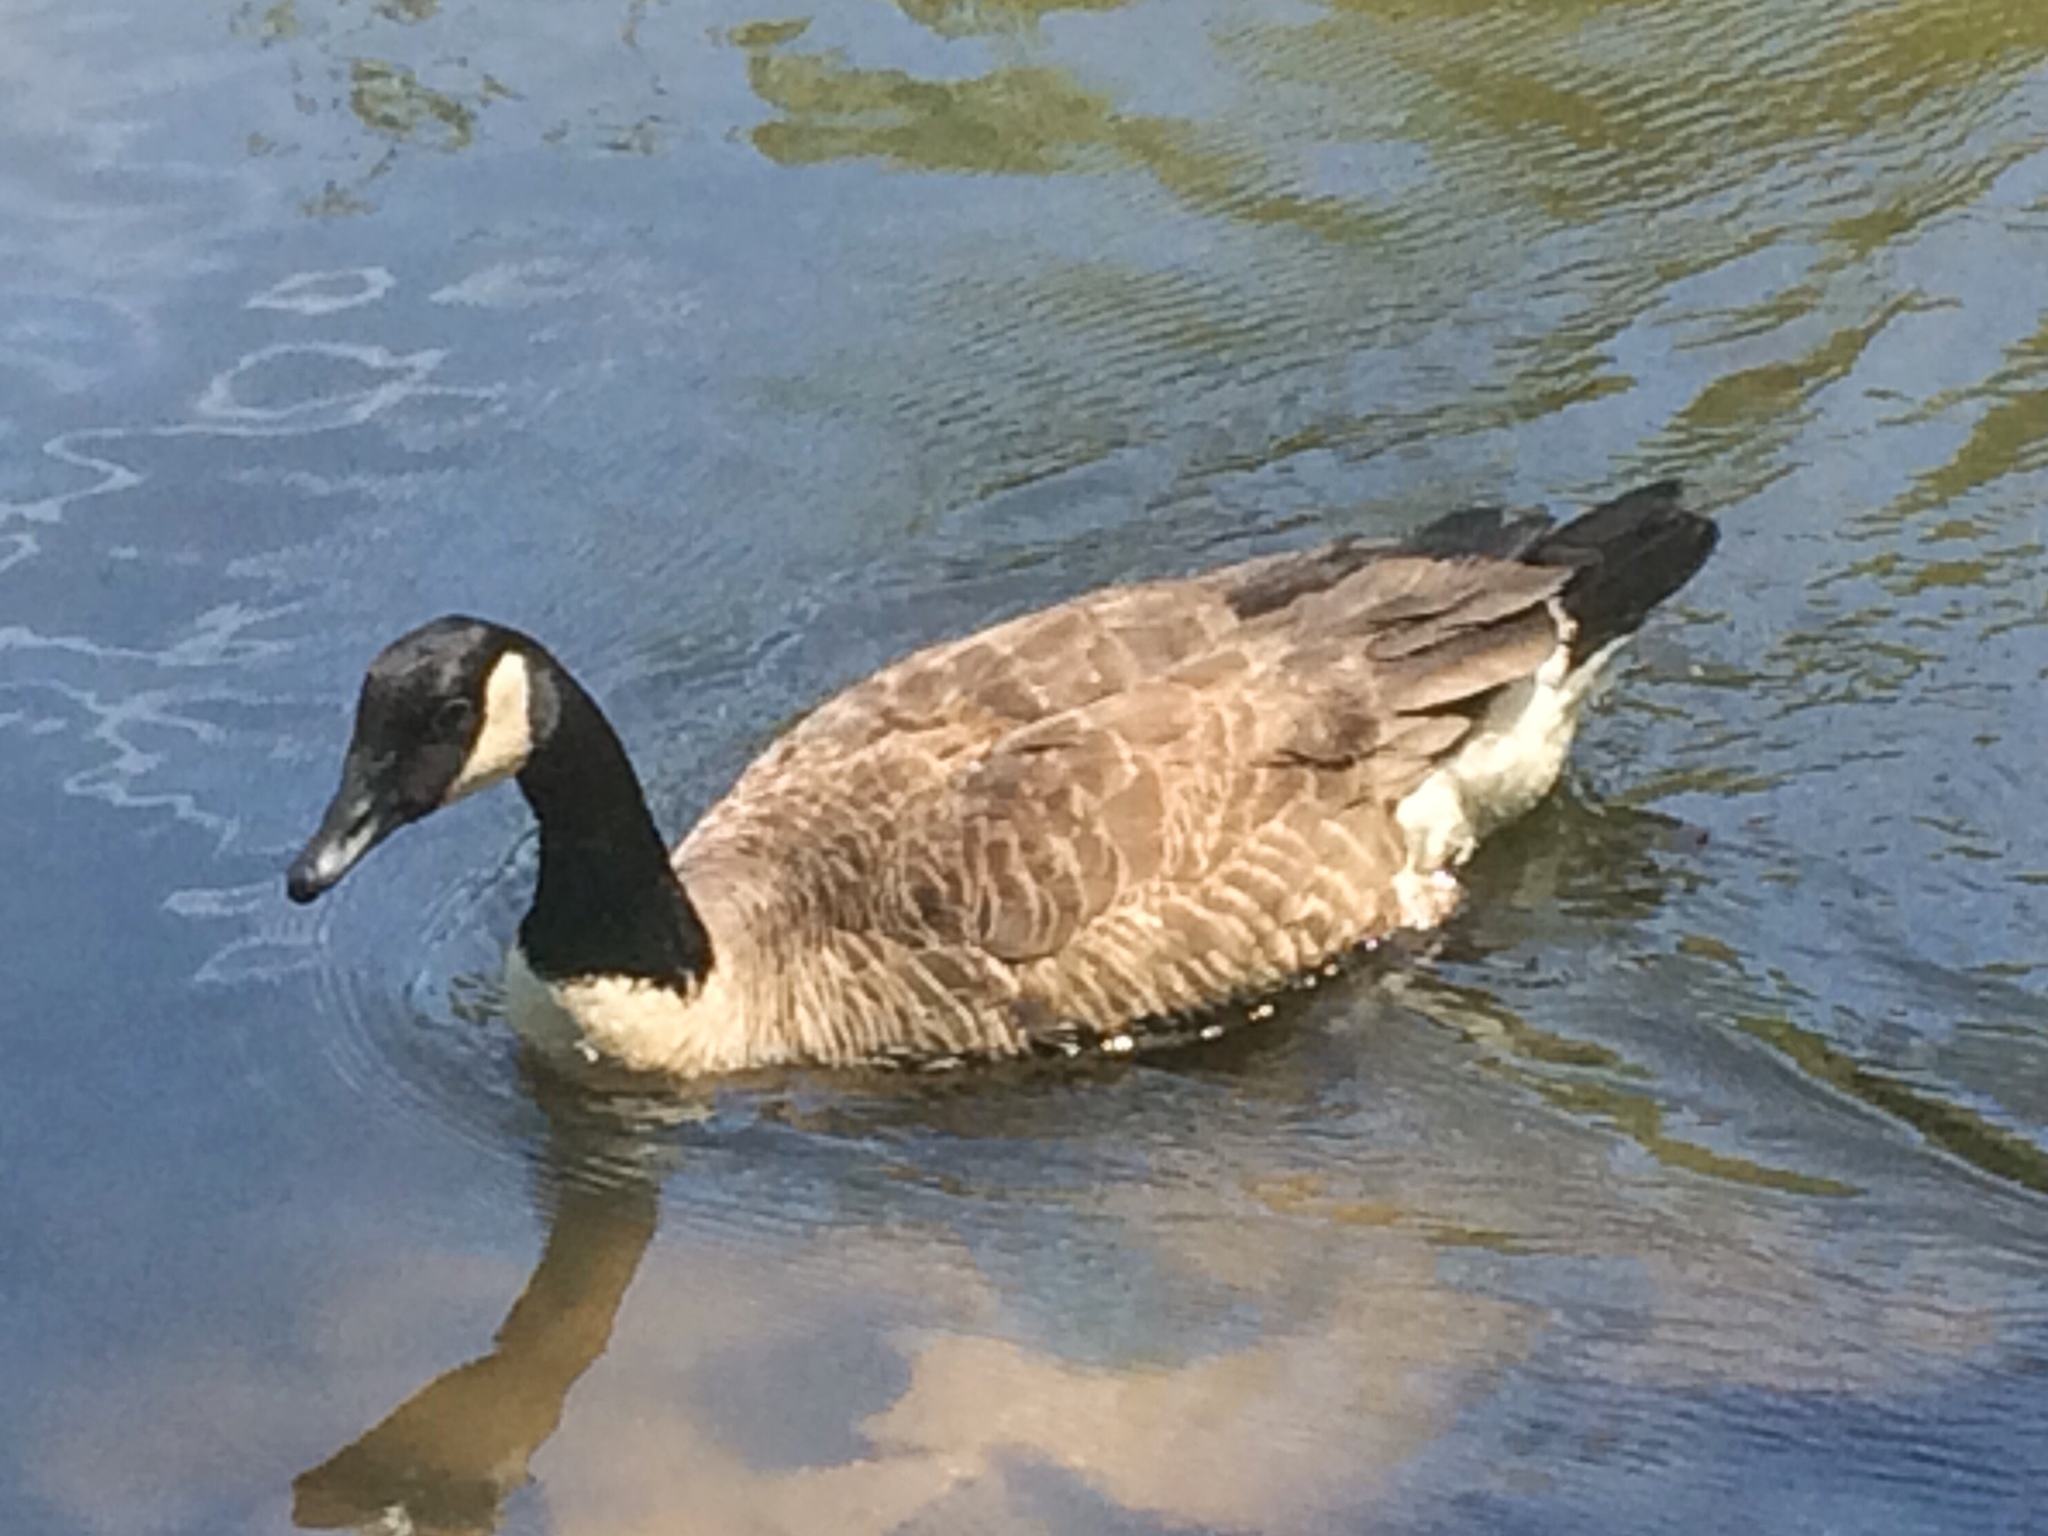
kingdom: Animalia
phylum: Chordata
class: Aves
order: Anseriformes
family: Anatidae
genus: Branta
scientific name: Branta canadensis
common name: Canada goose
